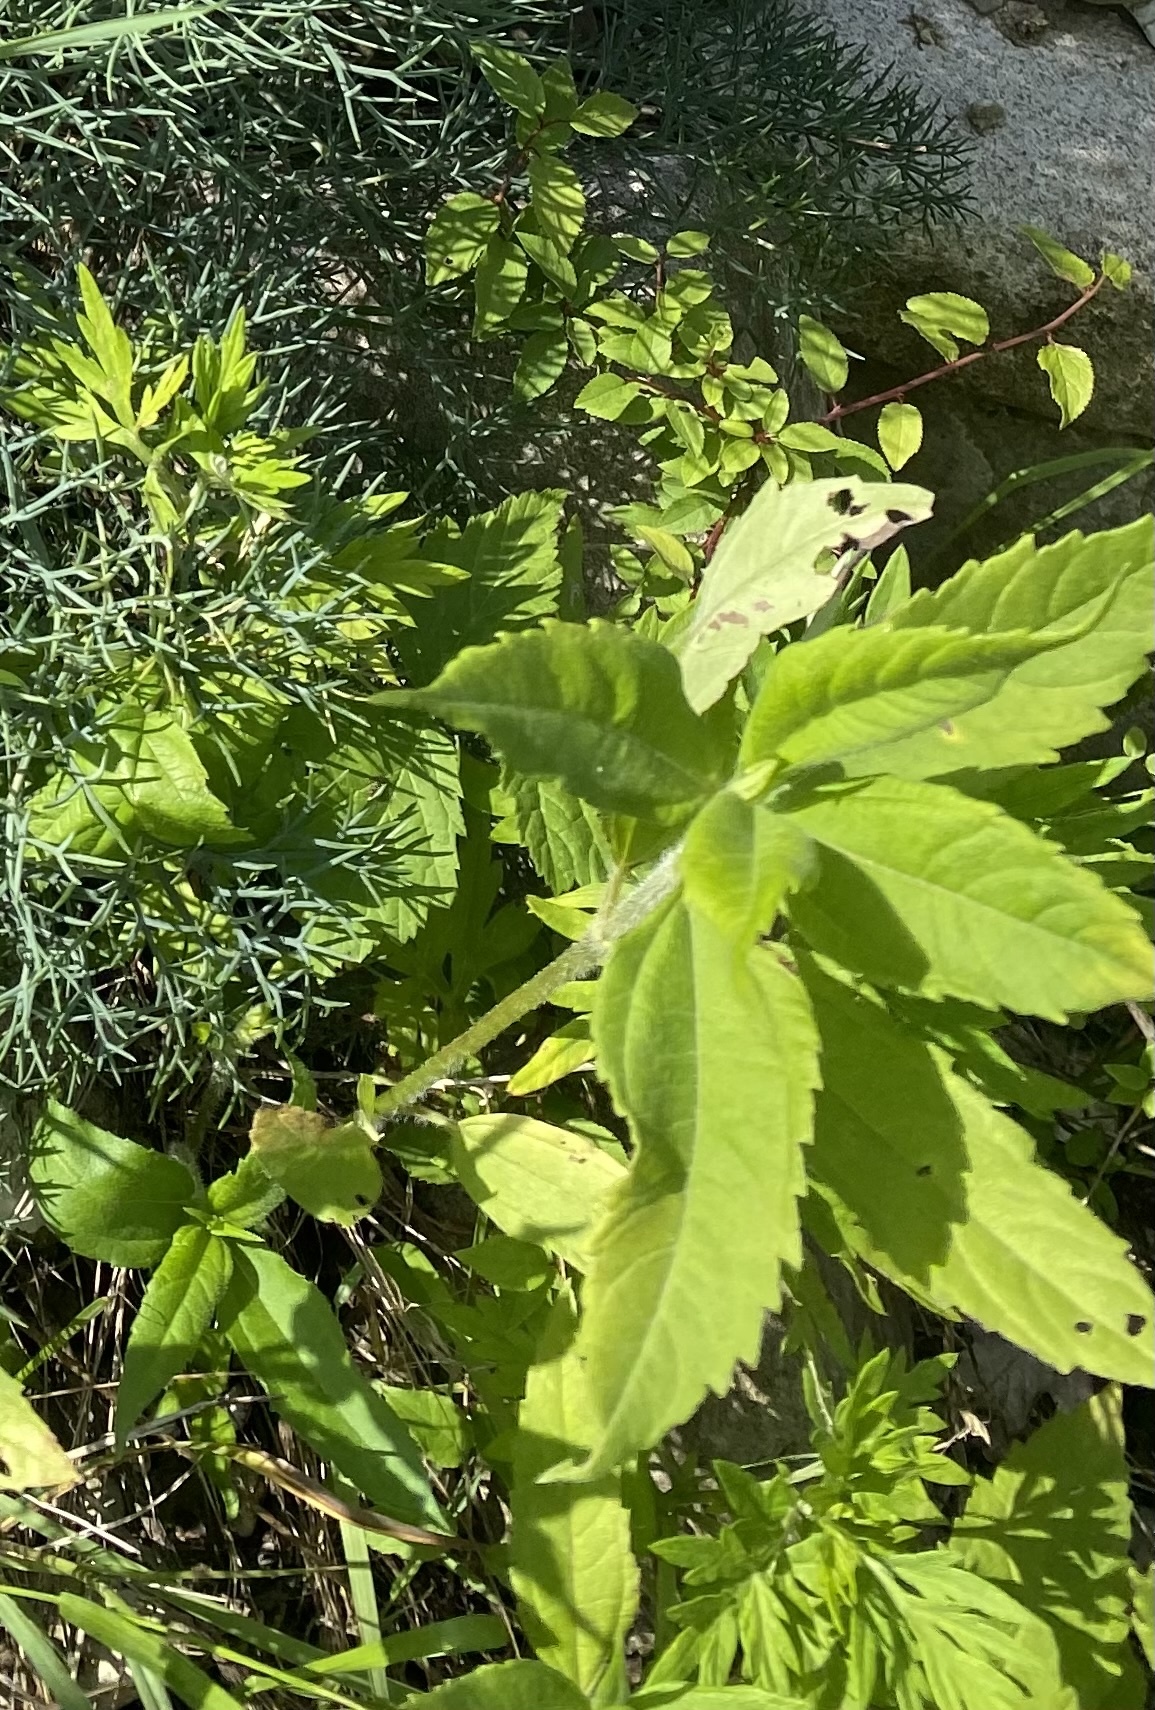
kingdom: Plantae
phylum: Tracheophyta
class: Magnoliopsida
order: Asterales
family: Asteraceae
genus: Helianthus
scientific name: Helianthus tuberosus
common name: Jerusalem artichoke
